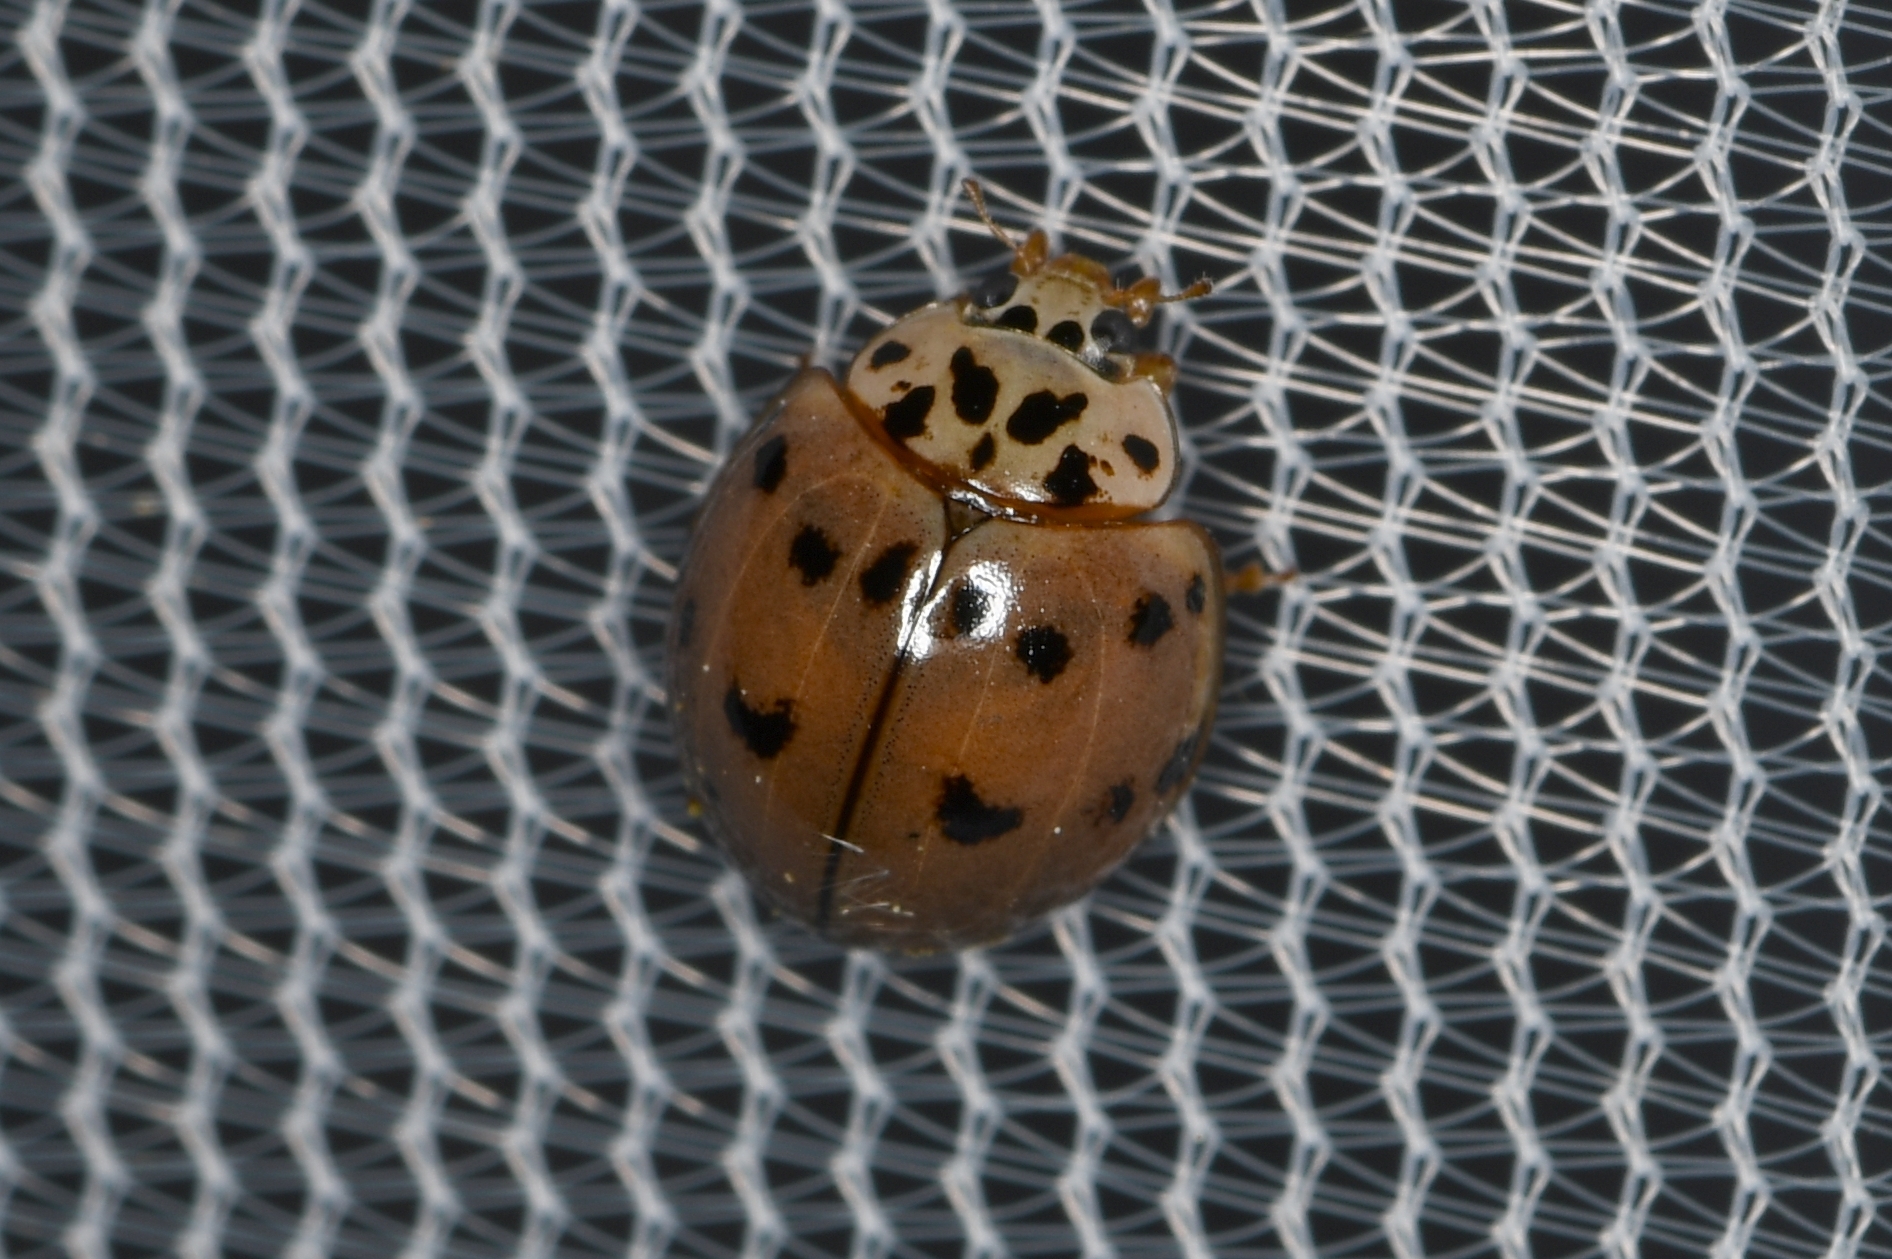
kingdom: Animalia
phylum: Arthropoda
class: Insecta
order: Coleoptera
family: Coccinellidae
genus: Olla
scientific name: Olla v-nigrum
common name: Ashy gray lady beetle
